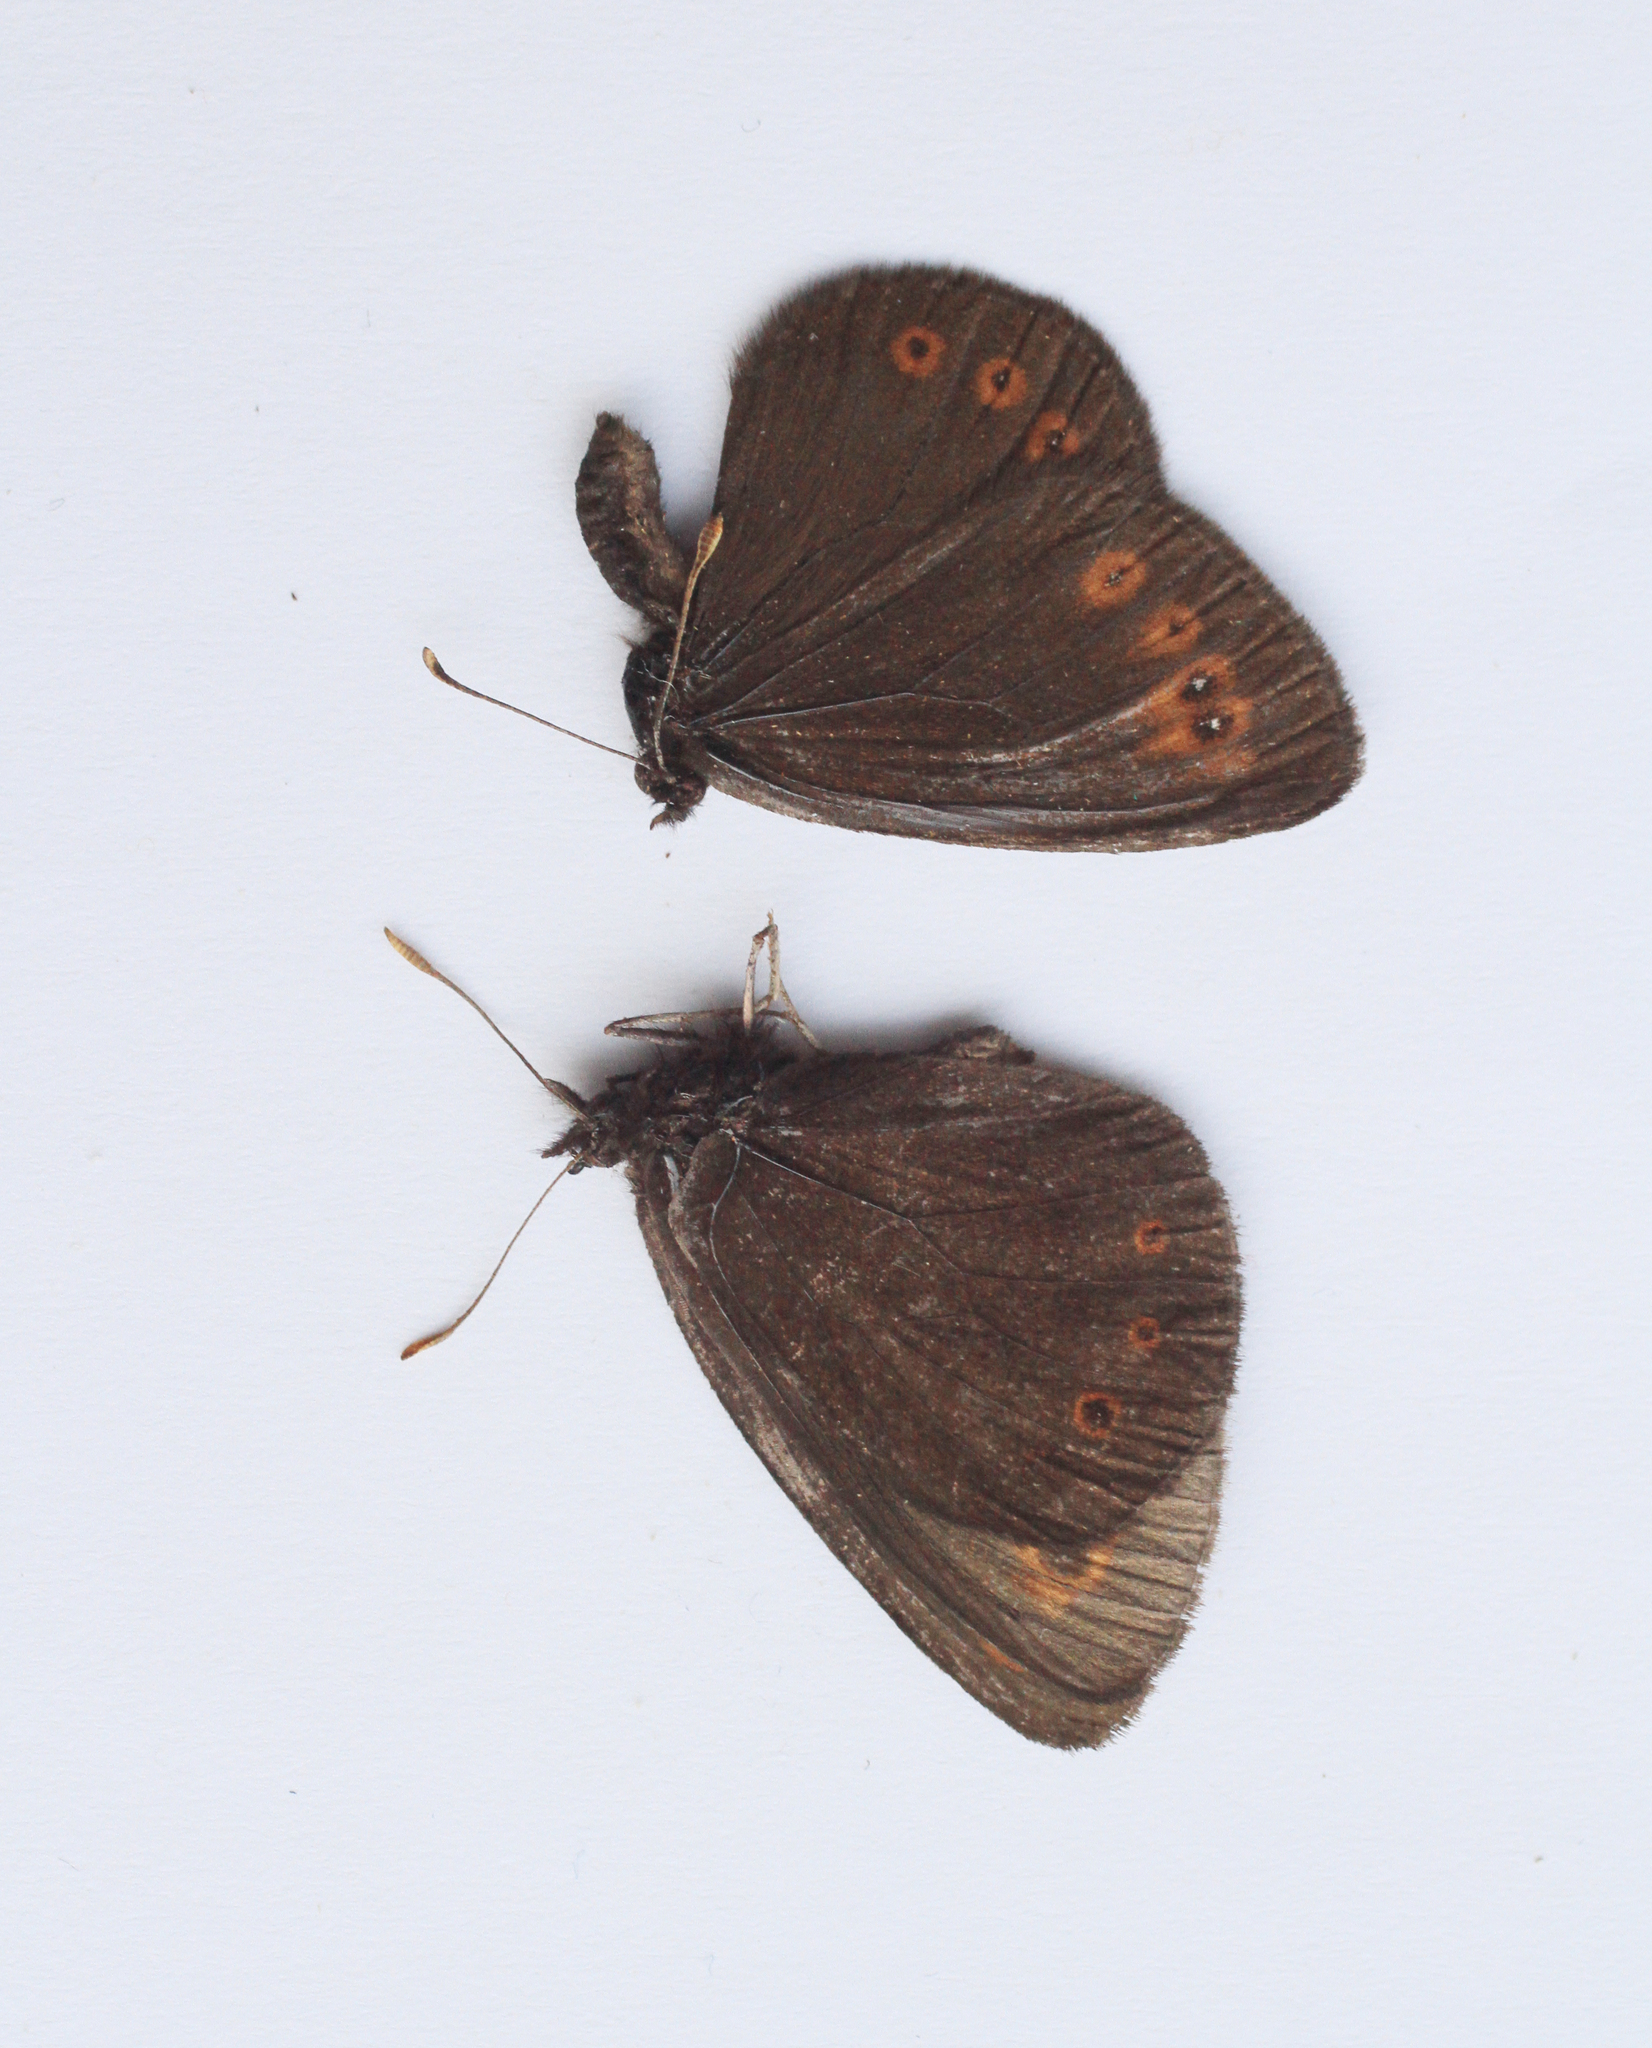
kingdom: Animalia
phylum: Arthropoda
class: Insecta
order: Lepidoptera
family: Nymphalidae
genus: Erebia
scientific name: Erebia medusa
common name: Woodland ringlet
